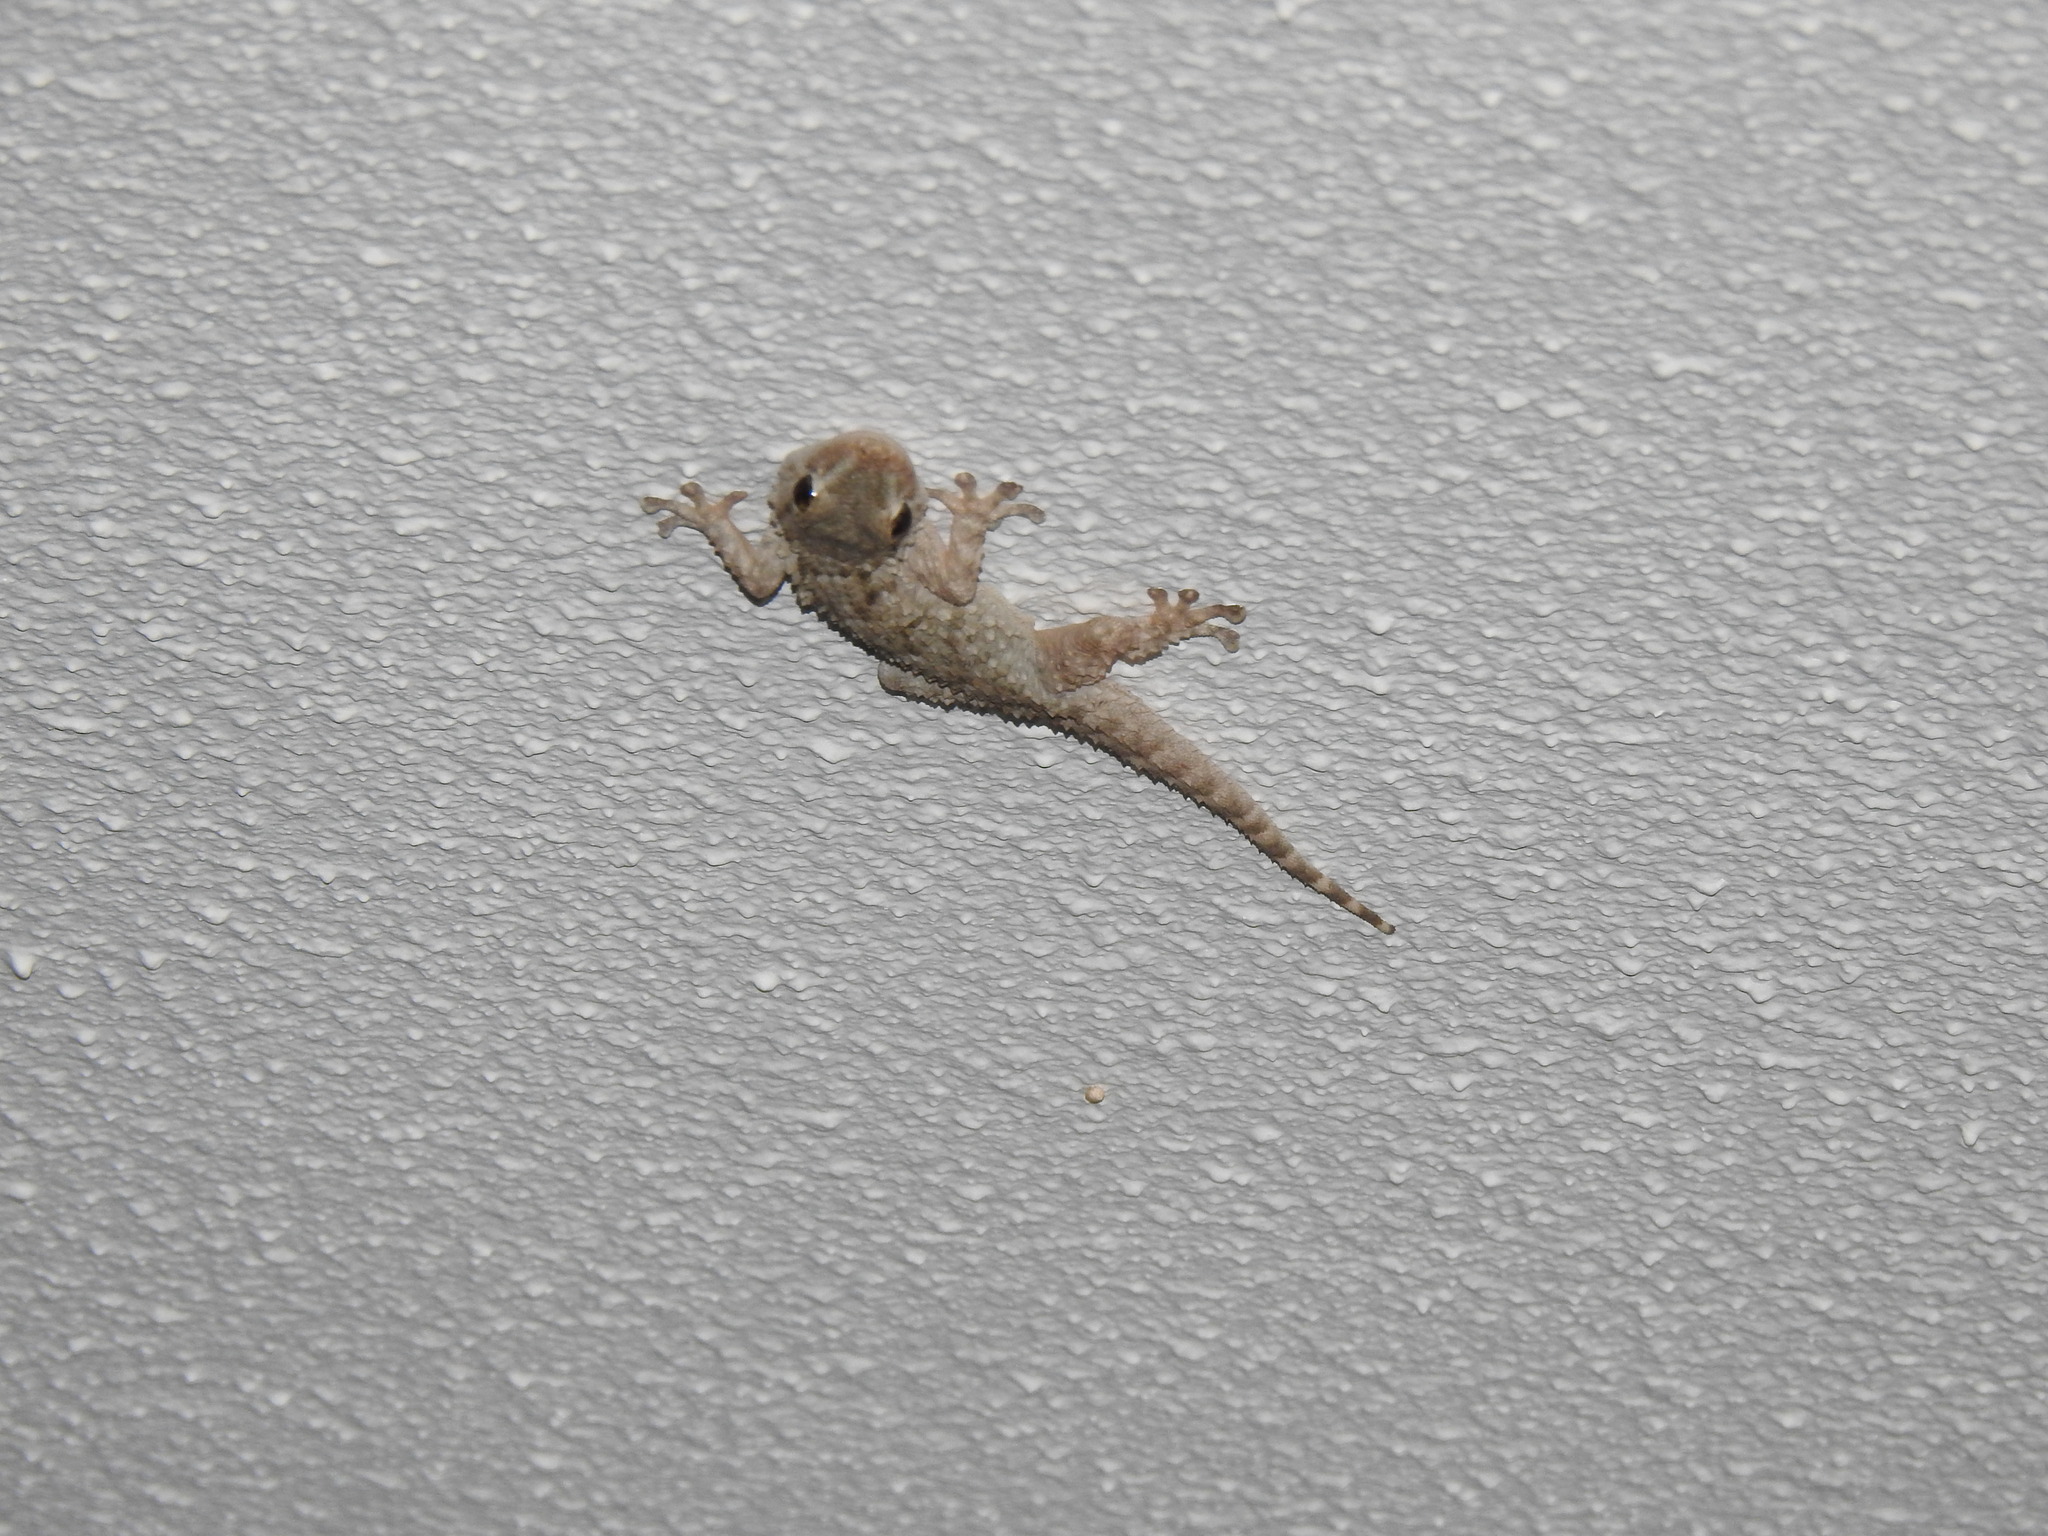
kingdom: Animalia
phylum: Chordata
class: Squamata
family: Phyllodactylidae
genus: Tarentola
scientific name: Tarentola mauritanica
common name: Moorish gecko
